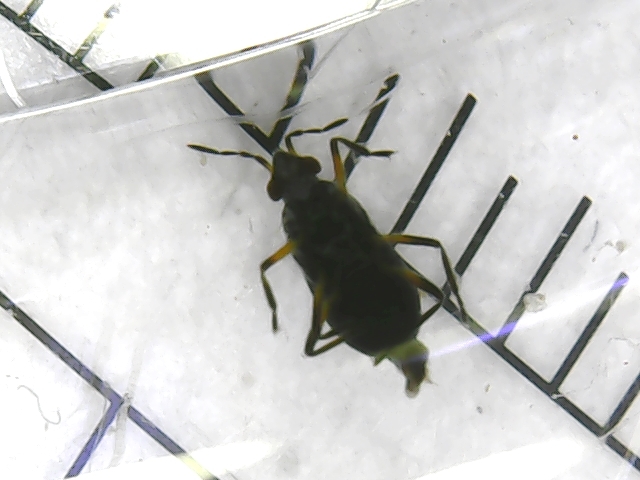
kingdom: Animalia
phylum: Arthropoda
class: Insecta
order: Hemiptera
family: Veliidae
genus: Microvelia
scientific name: Microvelia reticulata
